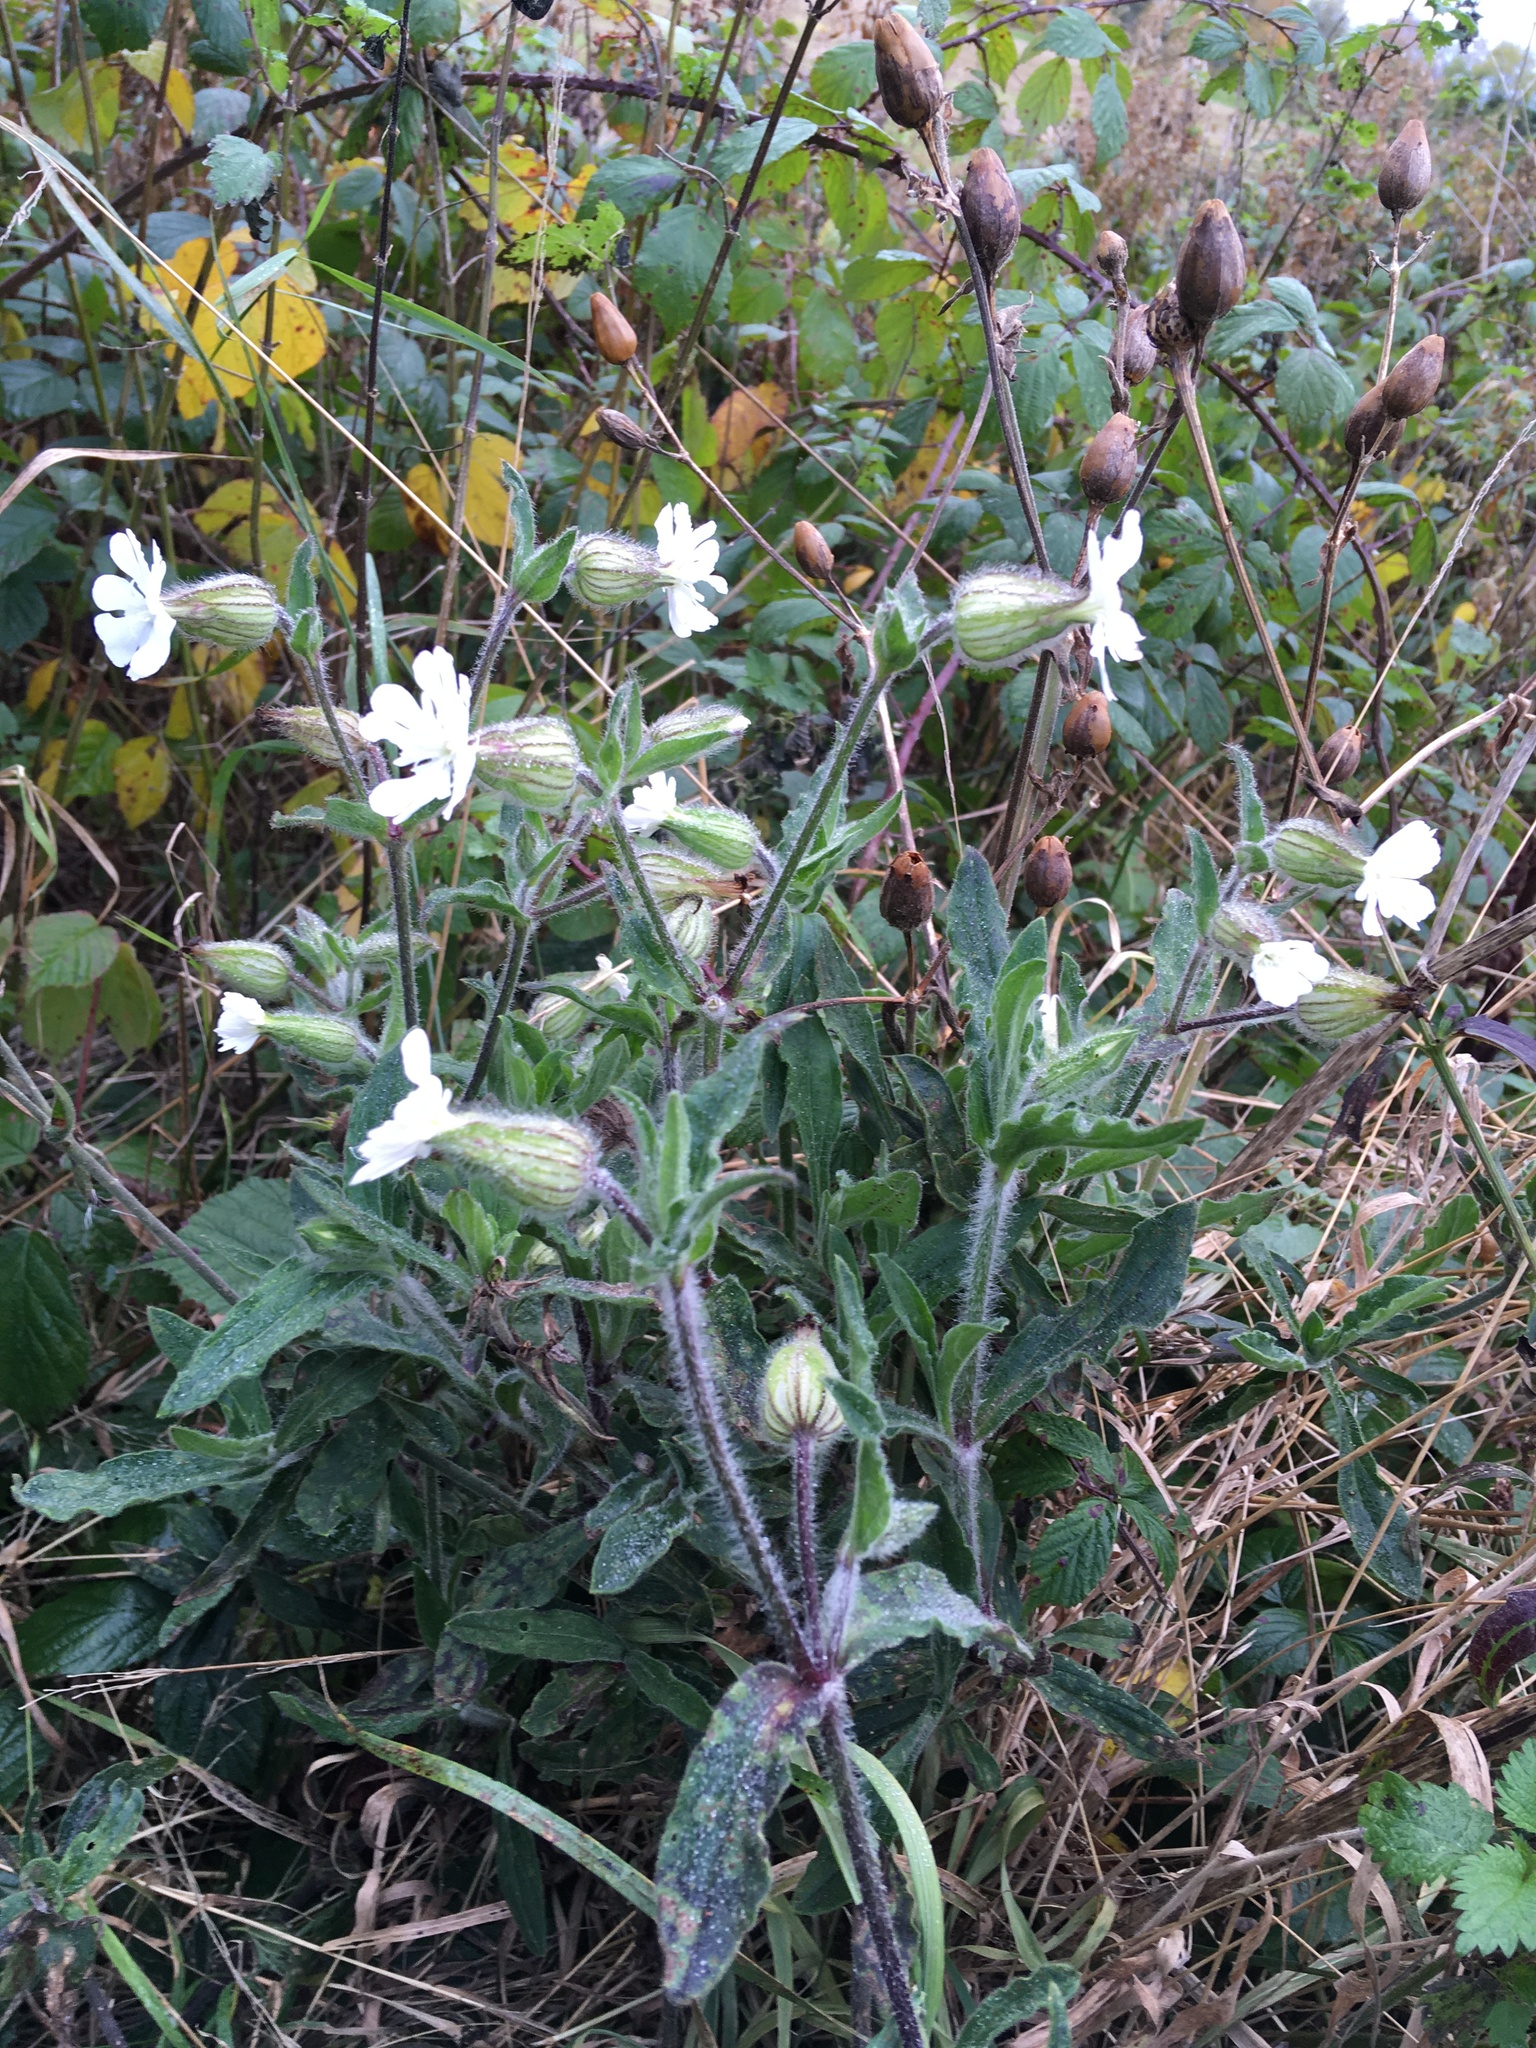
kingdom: Plantae
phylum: Tracheophyta
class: Magnoliopsida
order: Caryophyllales
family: Caryophyllaceae
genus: Silene
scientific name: Silene latifolia
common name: White campion
